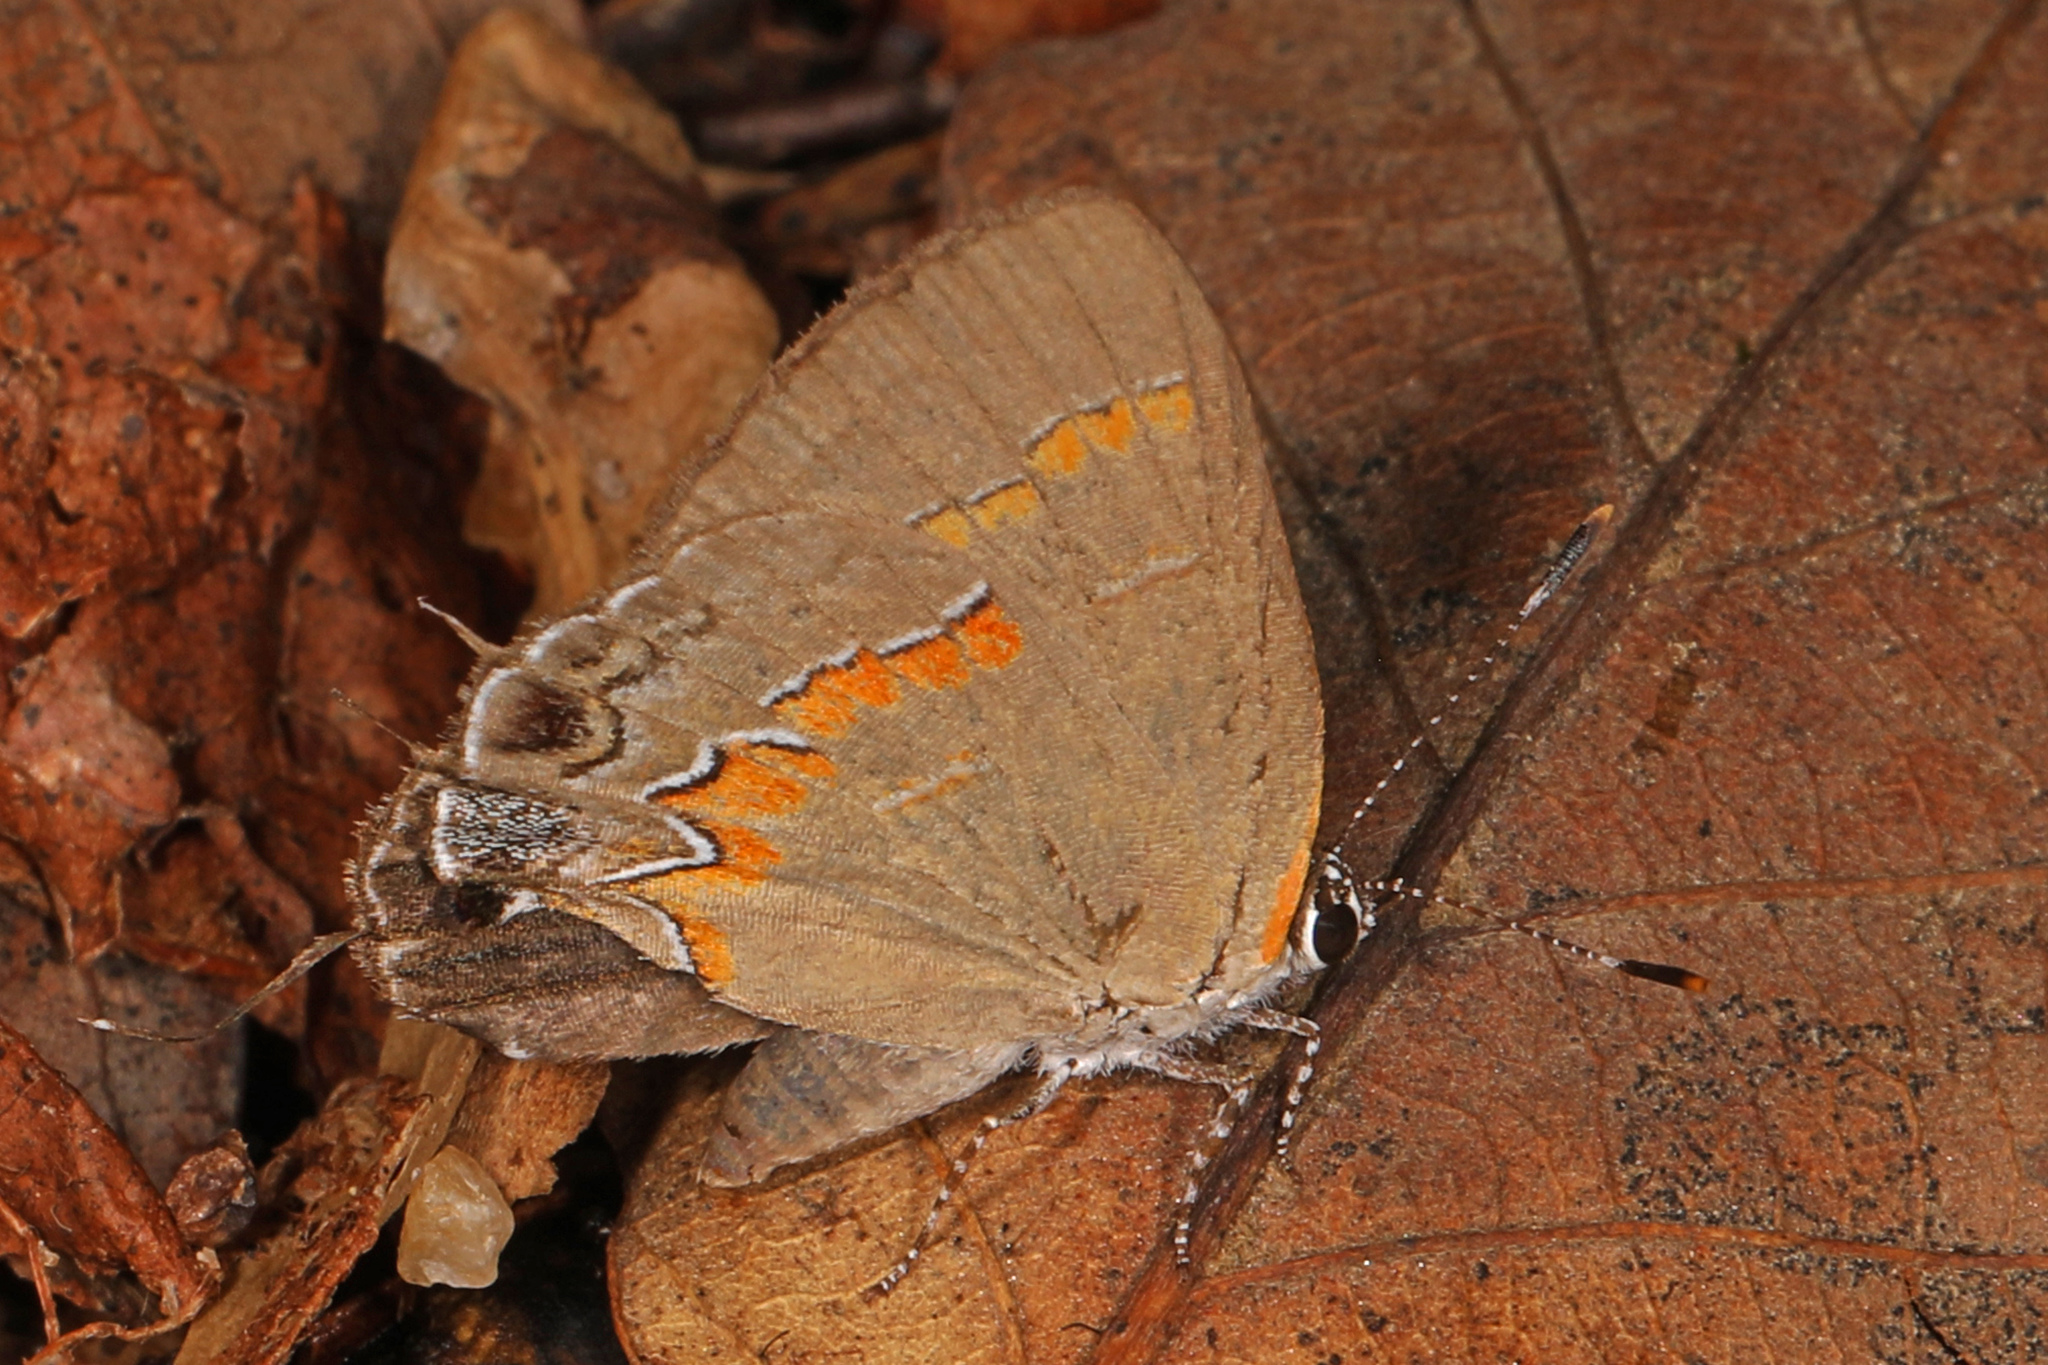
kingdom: Animalia
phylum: Arthropoda
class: Insecta
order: Lepidoptera
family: Lycaenidae
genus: Calycopis
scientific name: Calycopis cecrops
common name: Red-banded hairstreak
